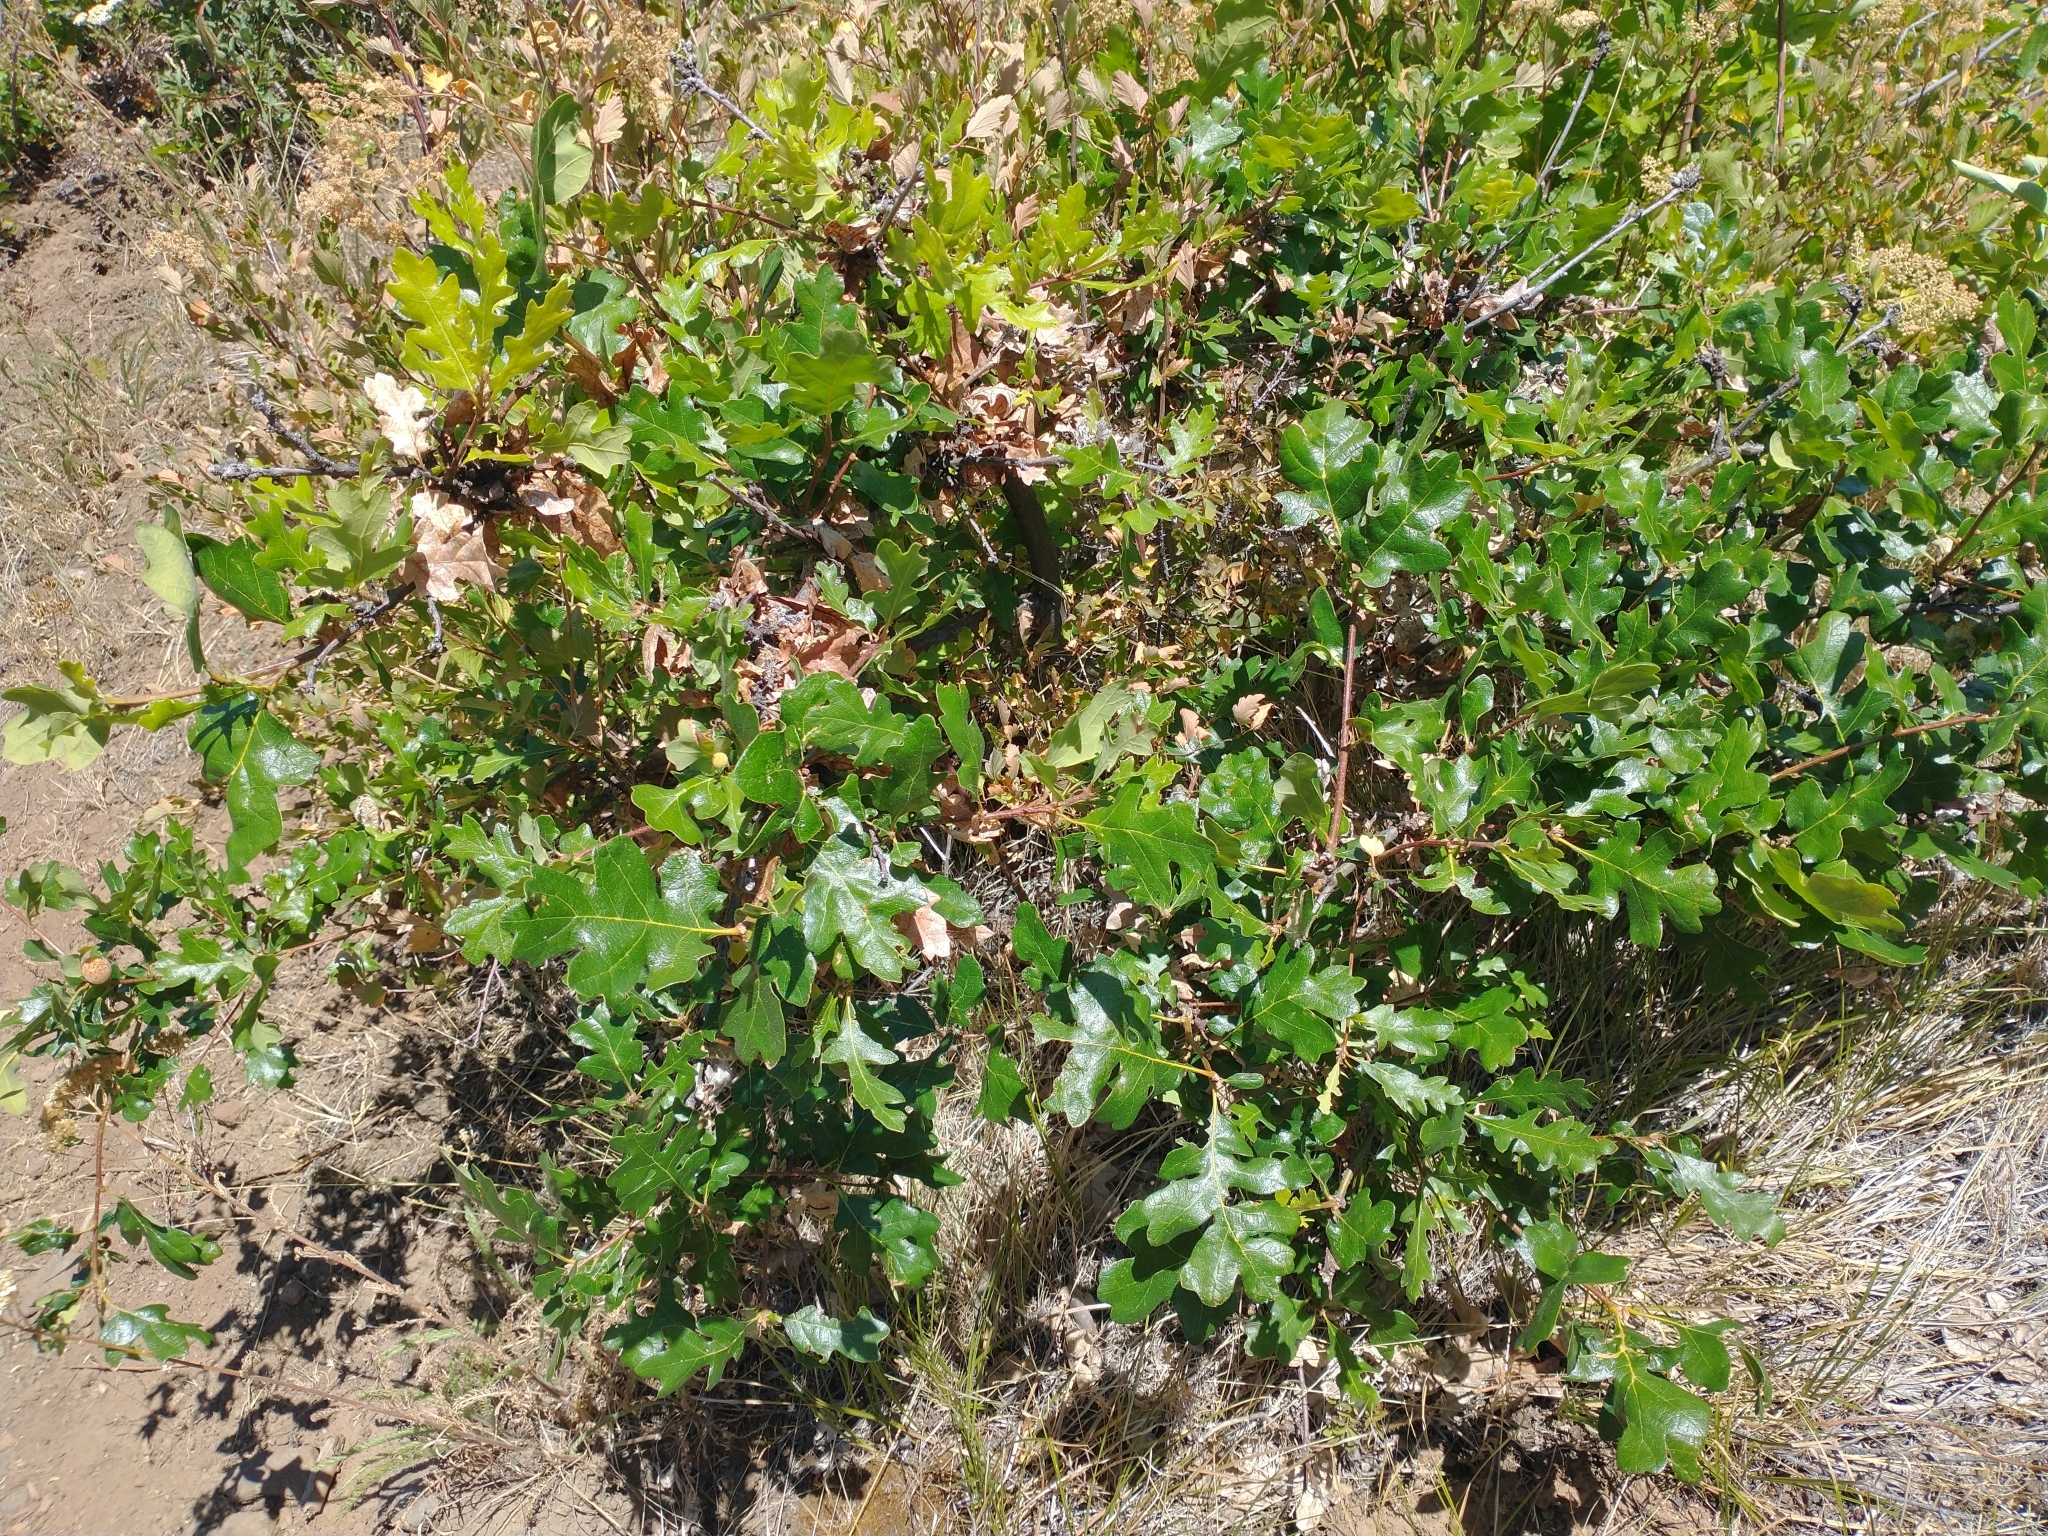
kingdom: Plantae
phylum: Tracheophyta
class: Magnoliopsida
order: Fagales
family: Fagaceae
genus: Quercus
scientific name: Quercus garryana
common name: Garry oak
